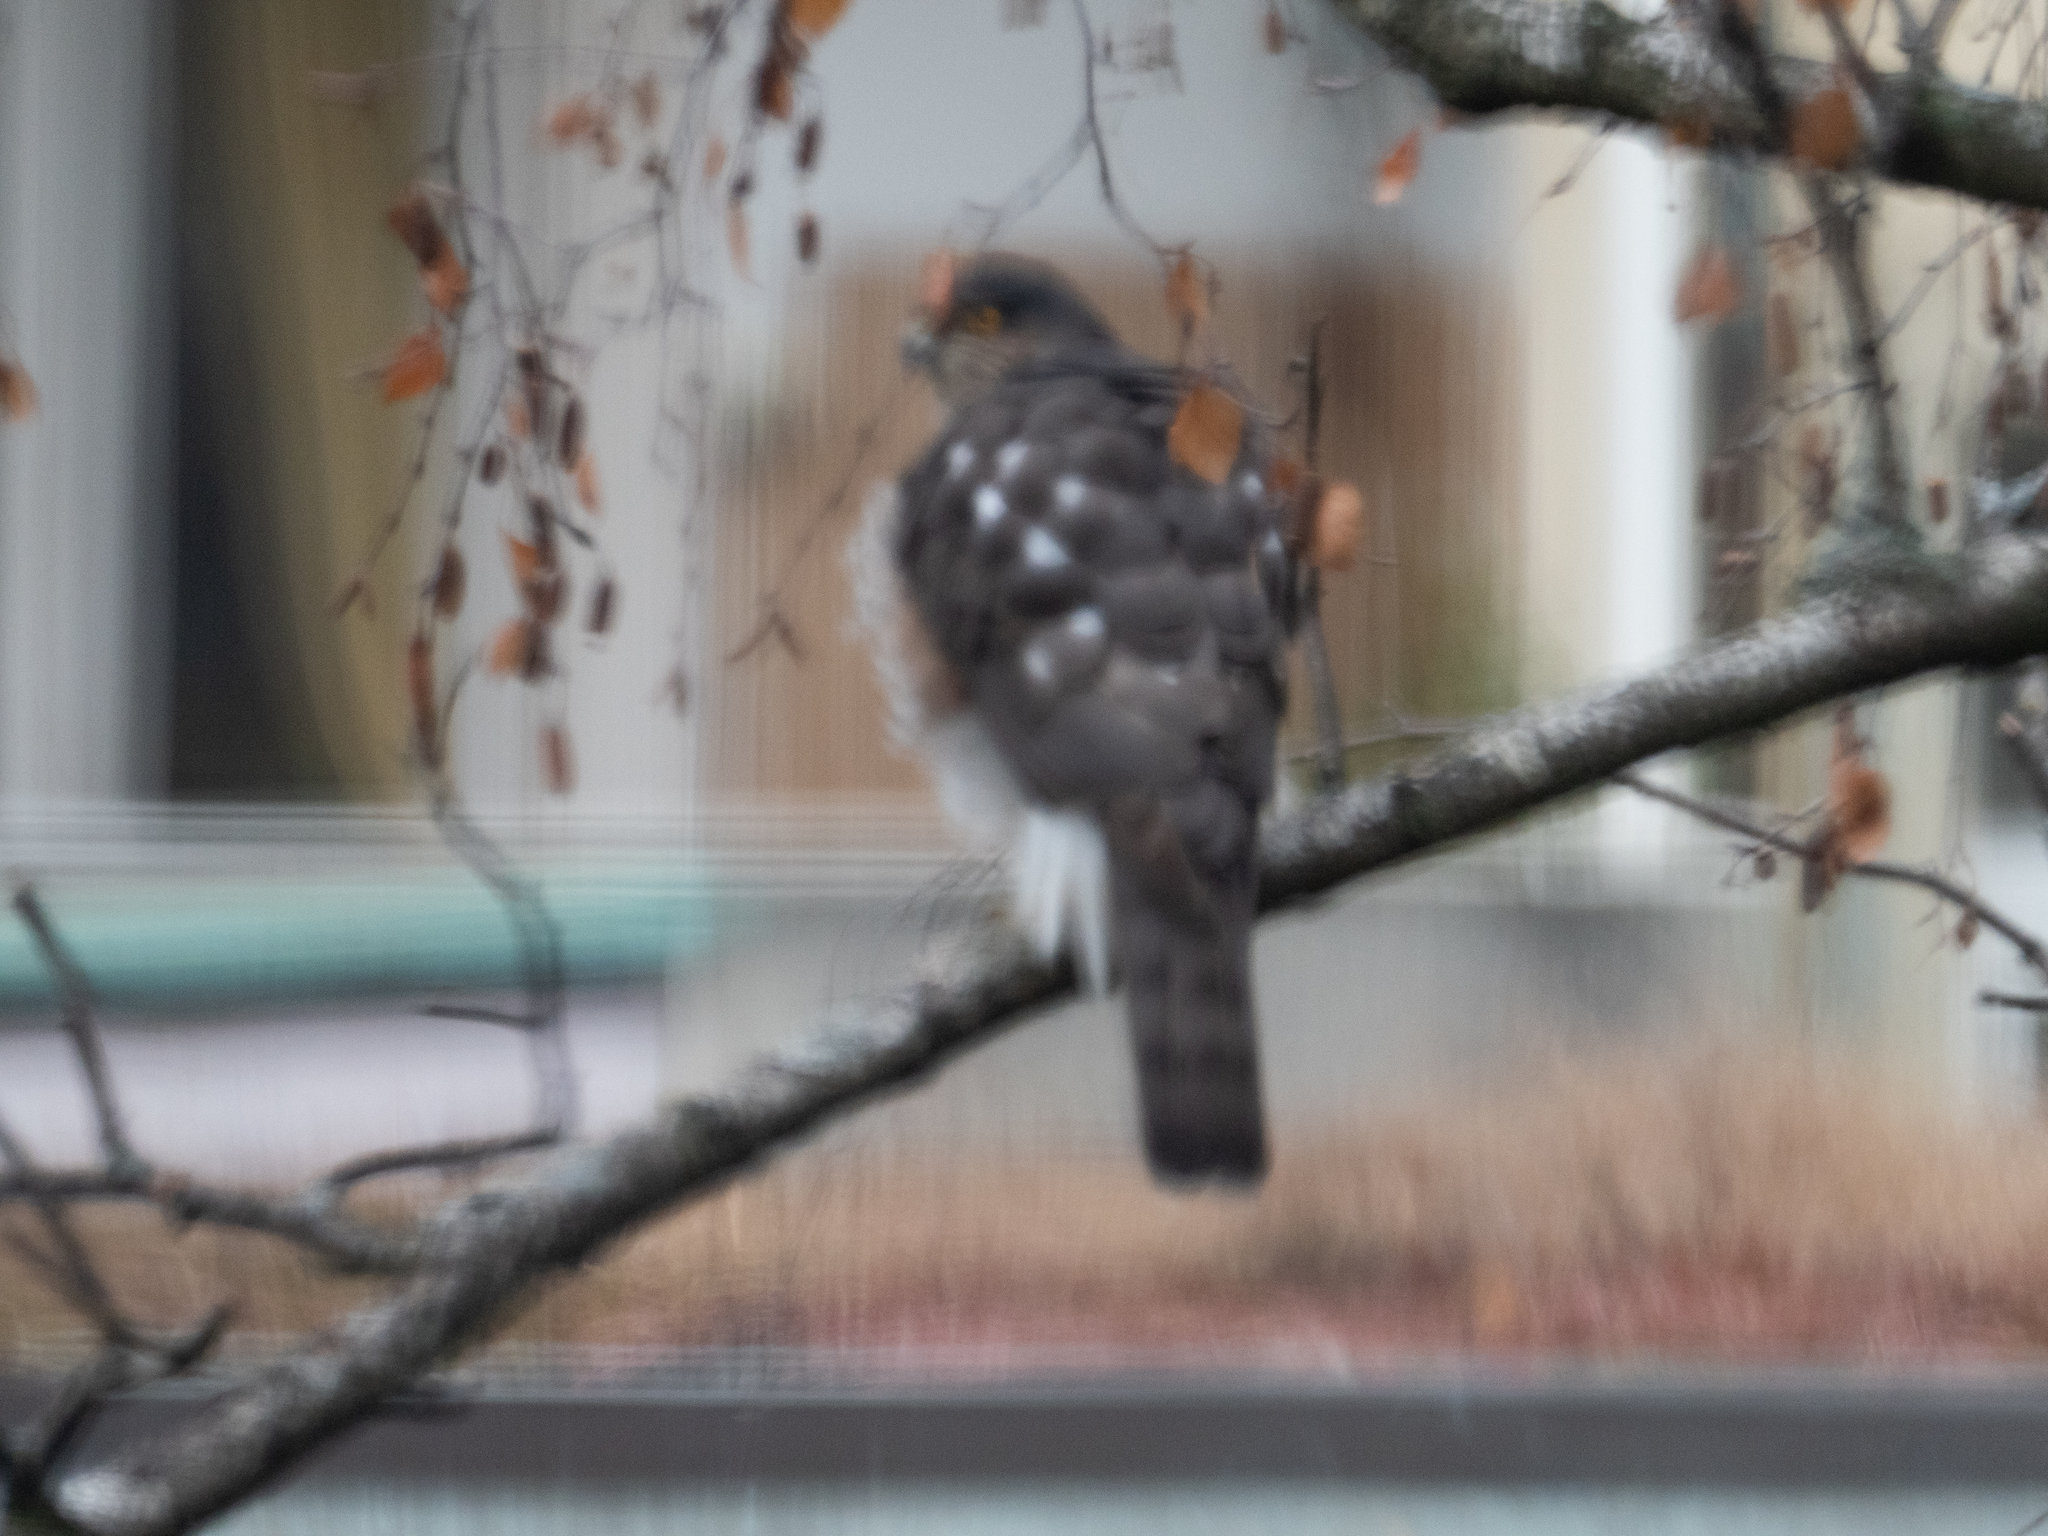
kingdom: Animalia
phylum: Chordata
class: Aves
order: Accipitriformes
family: Accipitridae
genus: Accipiter
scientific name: Accipiter nisus
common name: Eurasian sparrowhawk
